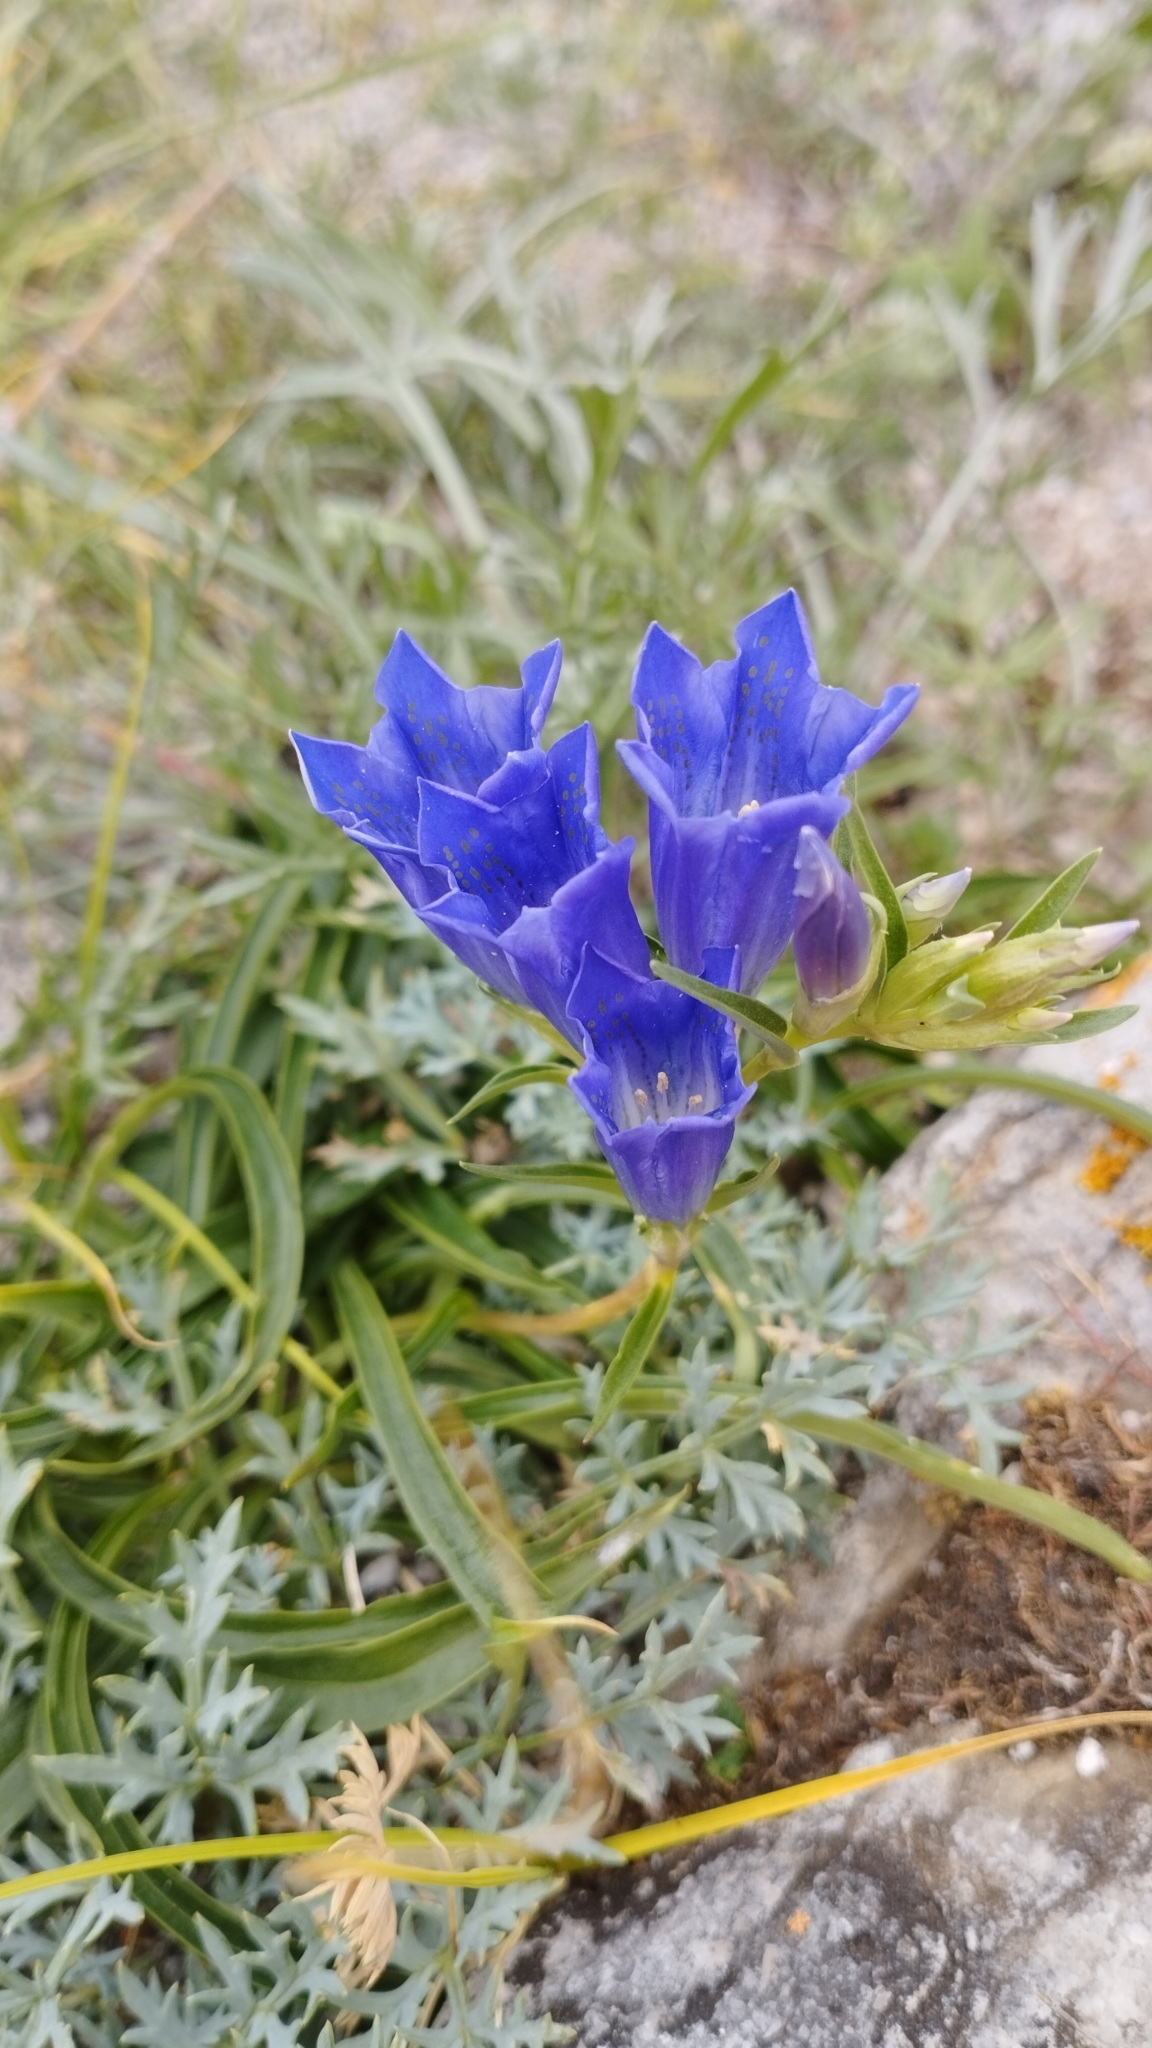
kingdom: Plantae
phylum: Tracheophyta
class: Magnoliopsida
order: Gentianales
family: Gentianaceae
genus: Gentiana
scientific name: Gentiana decumbens
